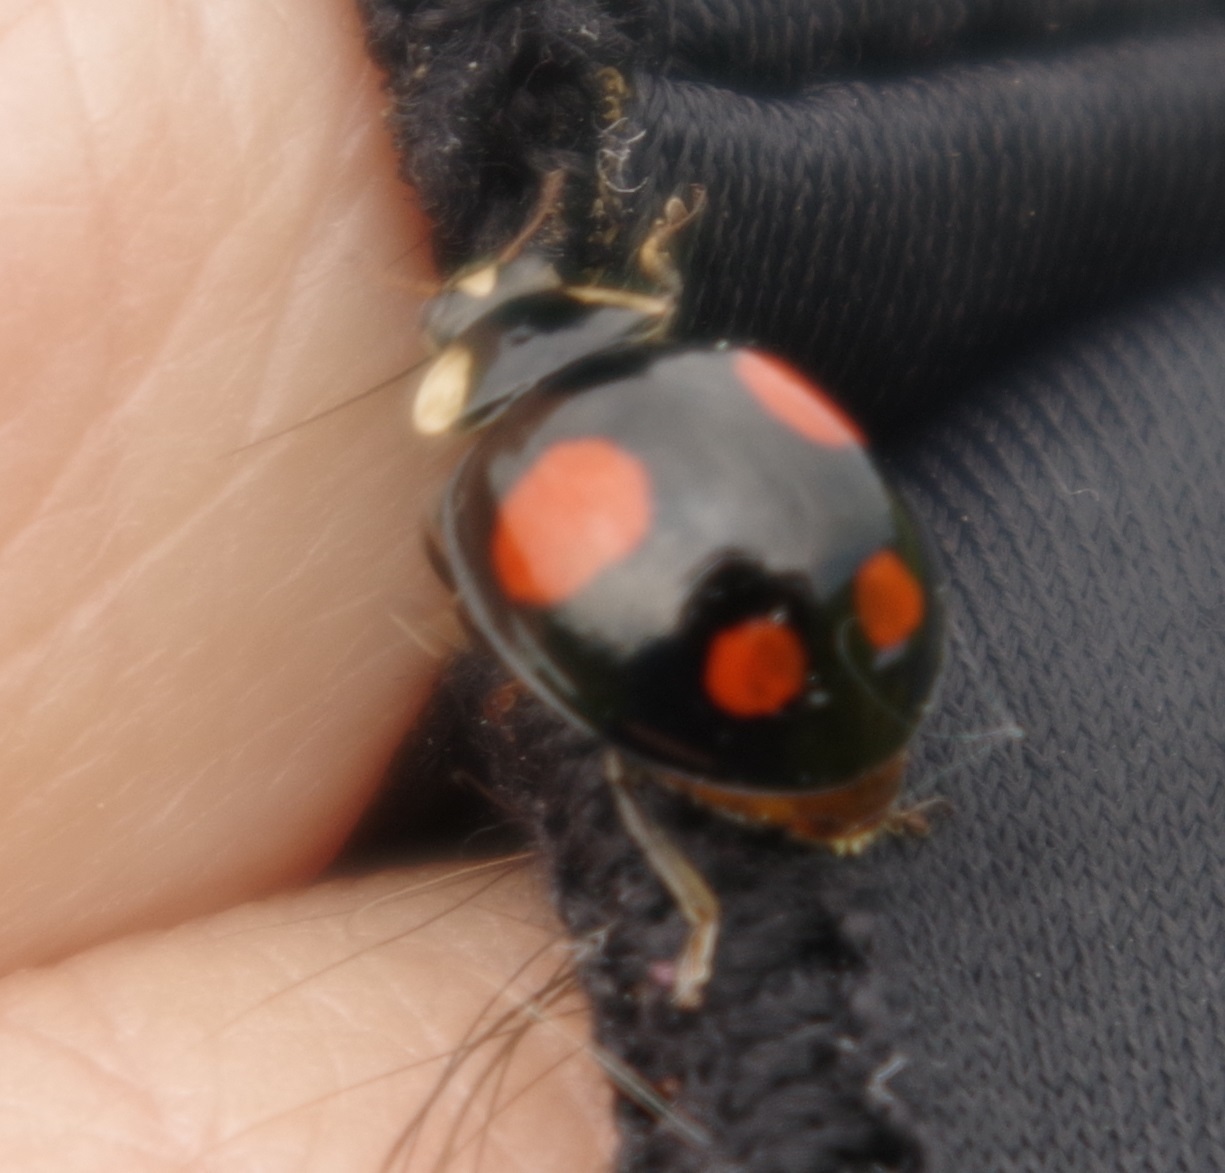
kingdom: Animalia
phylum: Arthropoda
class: Insecta
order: Coleoptera
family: Coccinellidae
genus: Harmonia
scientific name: Harmonia axyridis
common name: Harlequin ladybird
